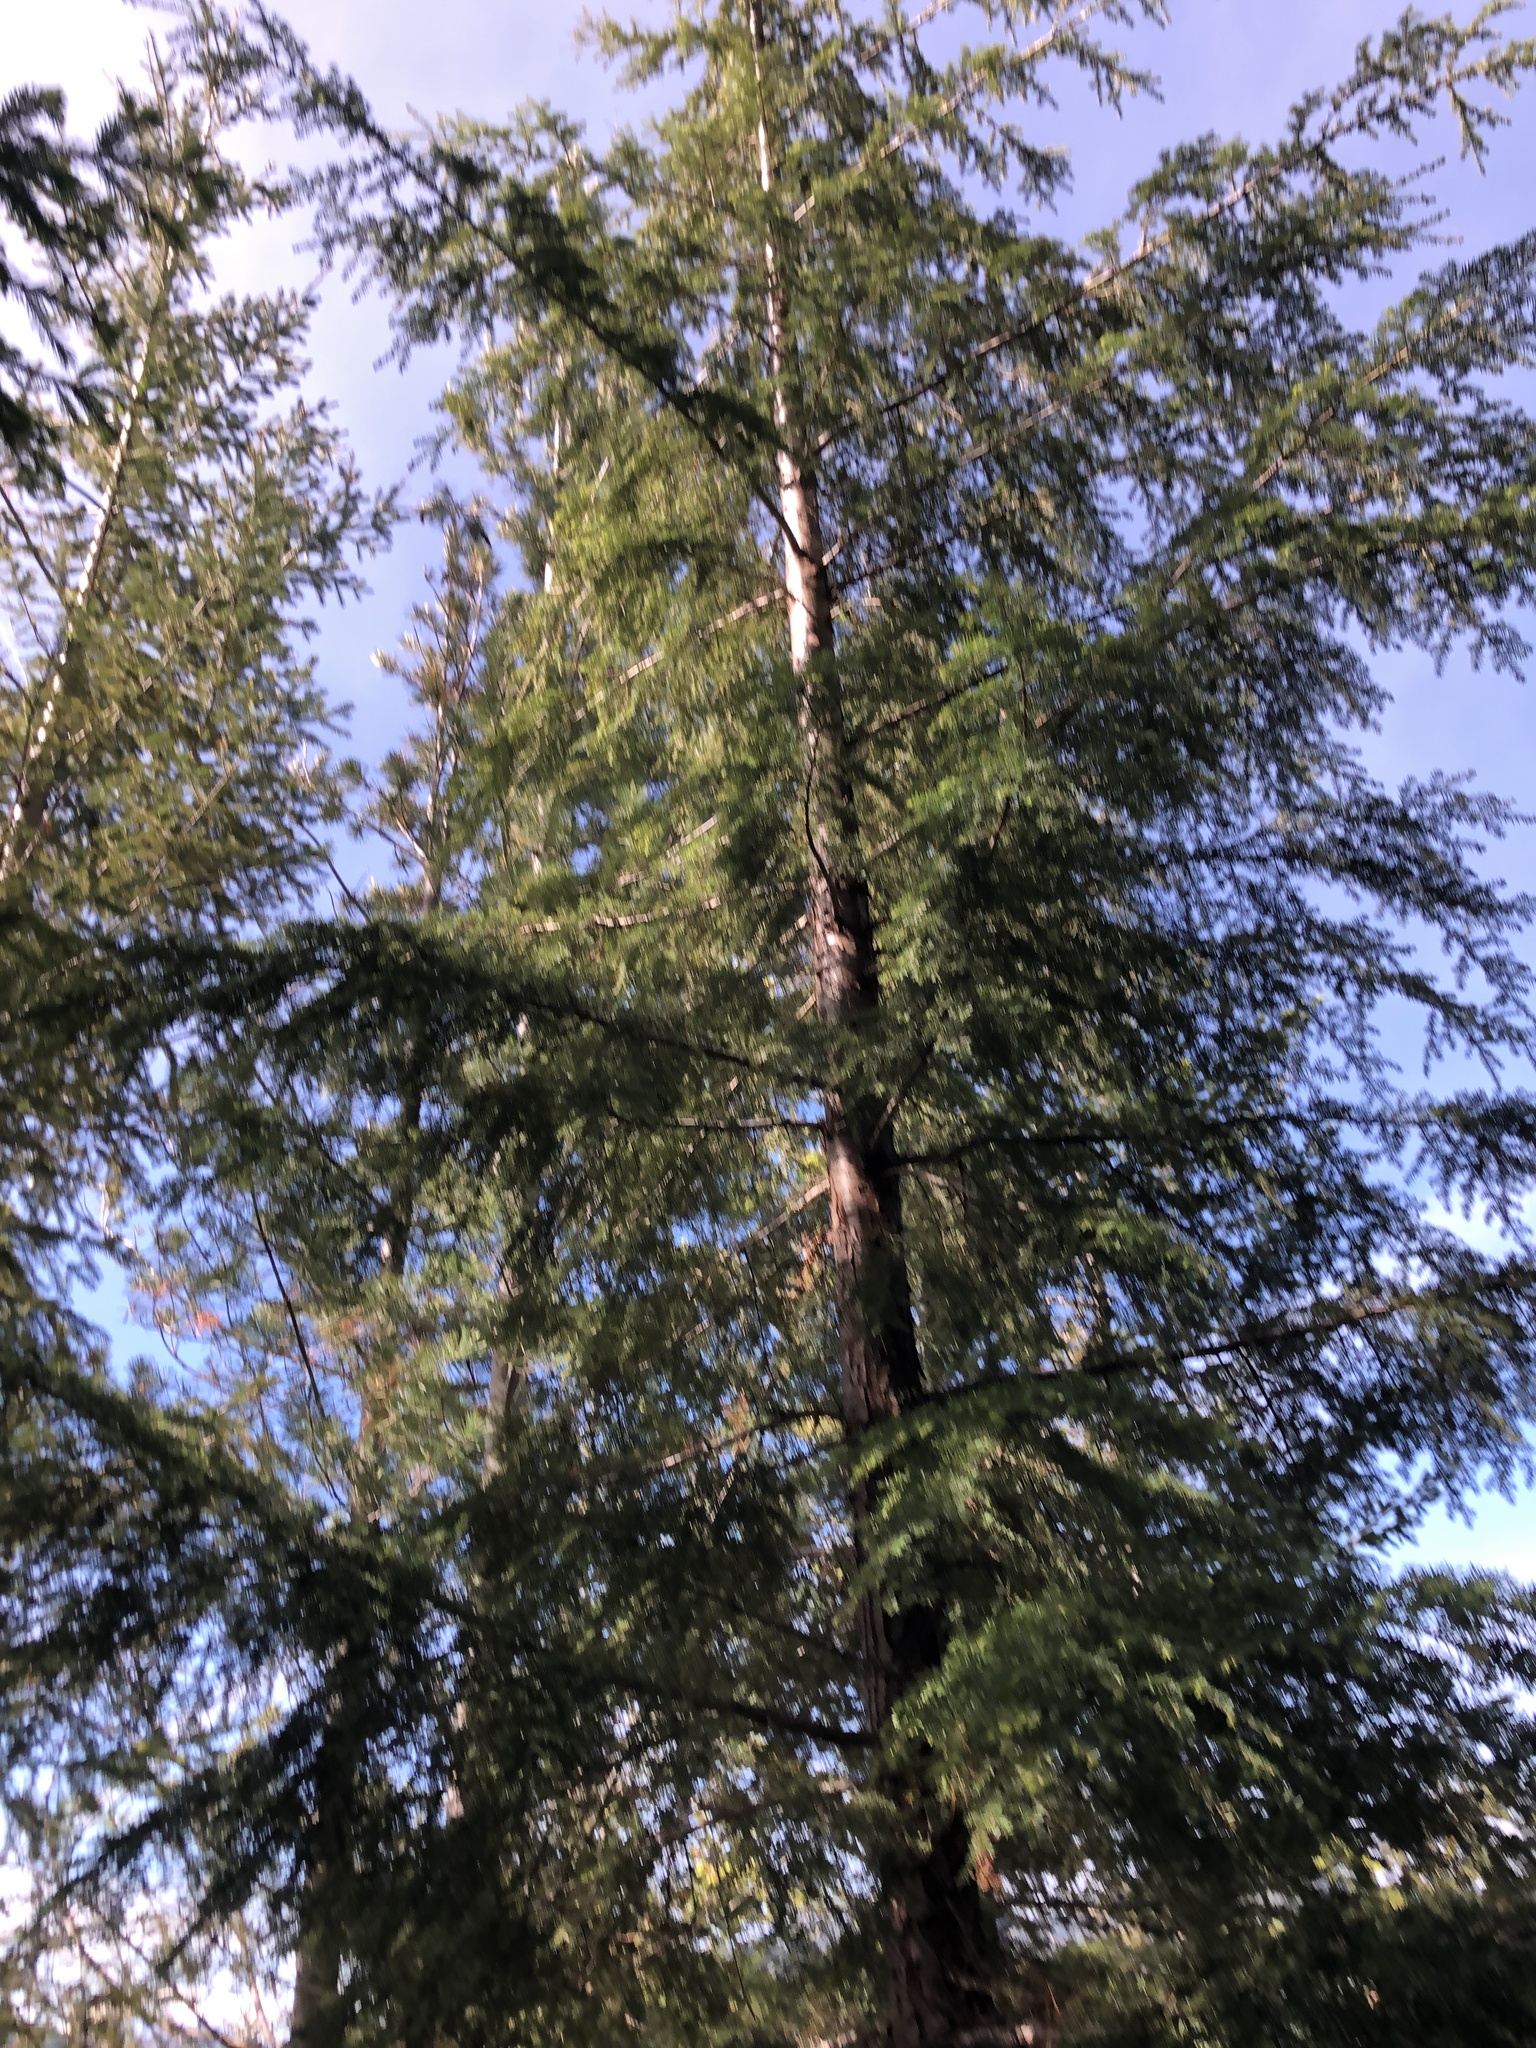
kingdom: Plantae
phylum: Tracheophyta
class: Pinopsida
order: Pinales
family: Pinaceae
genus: Tsuga
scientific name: Tsuga heterophylla
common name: Western hemlock
